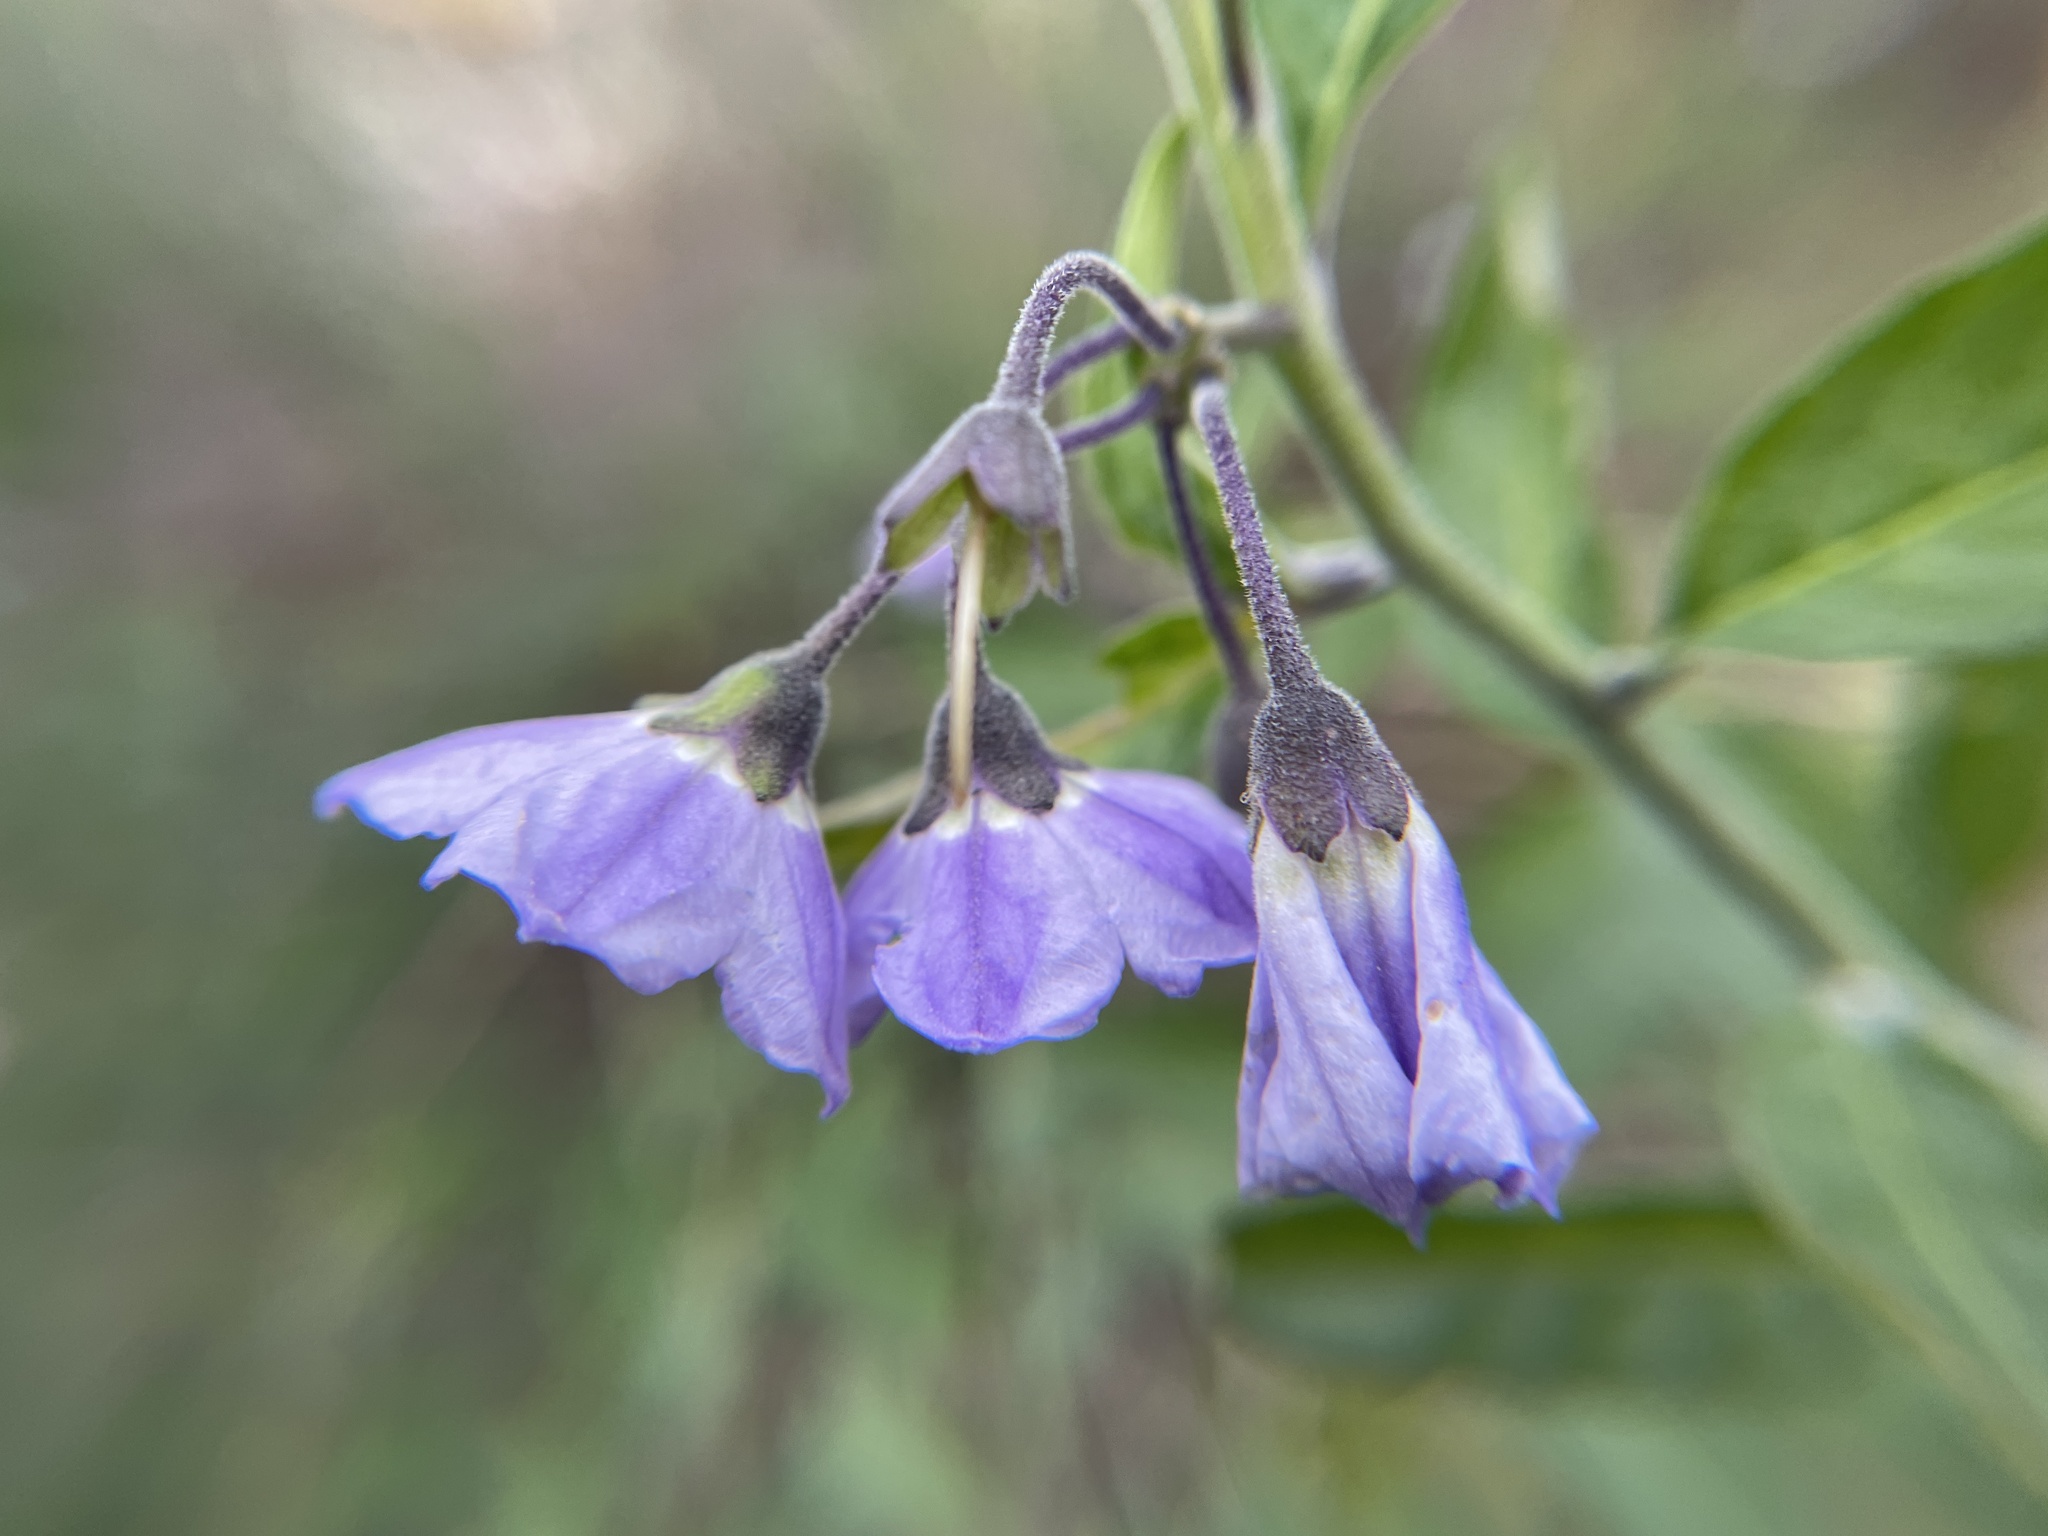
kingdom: Plantae
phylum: Tracheophyta
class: Magnoliopsida
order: Solanales
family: Solanaceae
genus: Solanum
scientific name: Solanum umbelliferum
